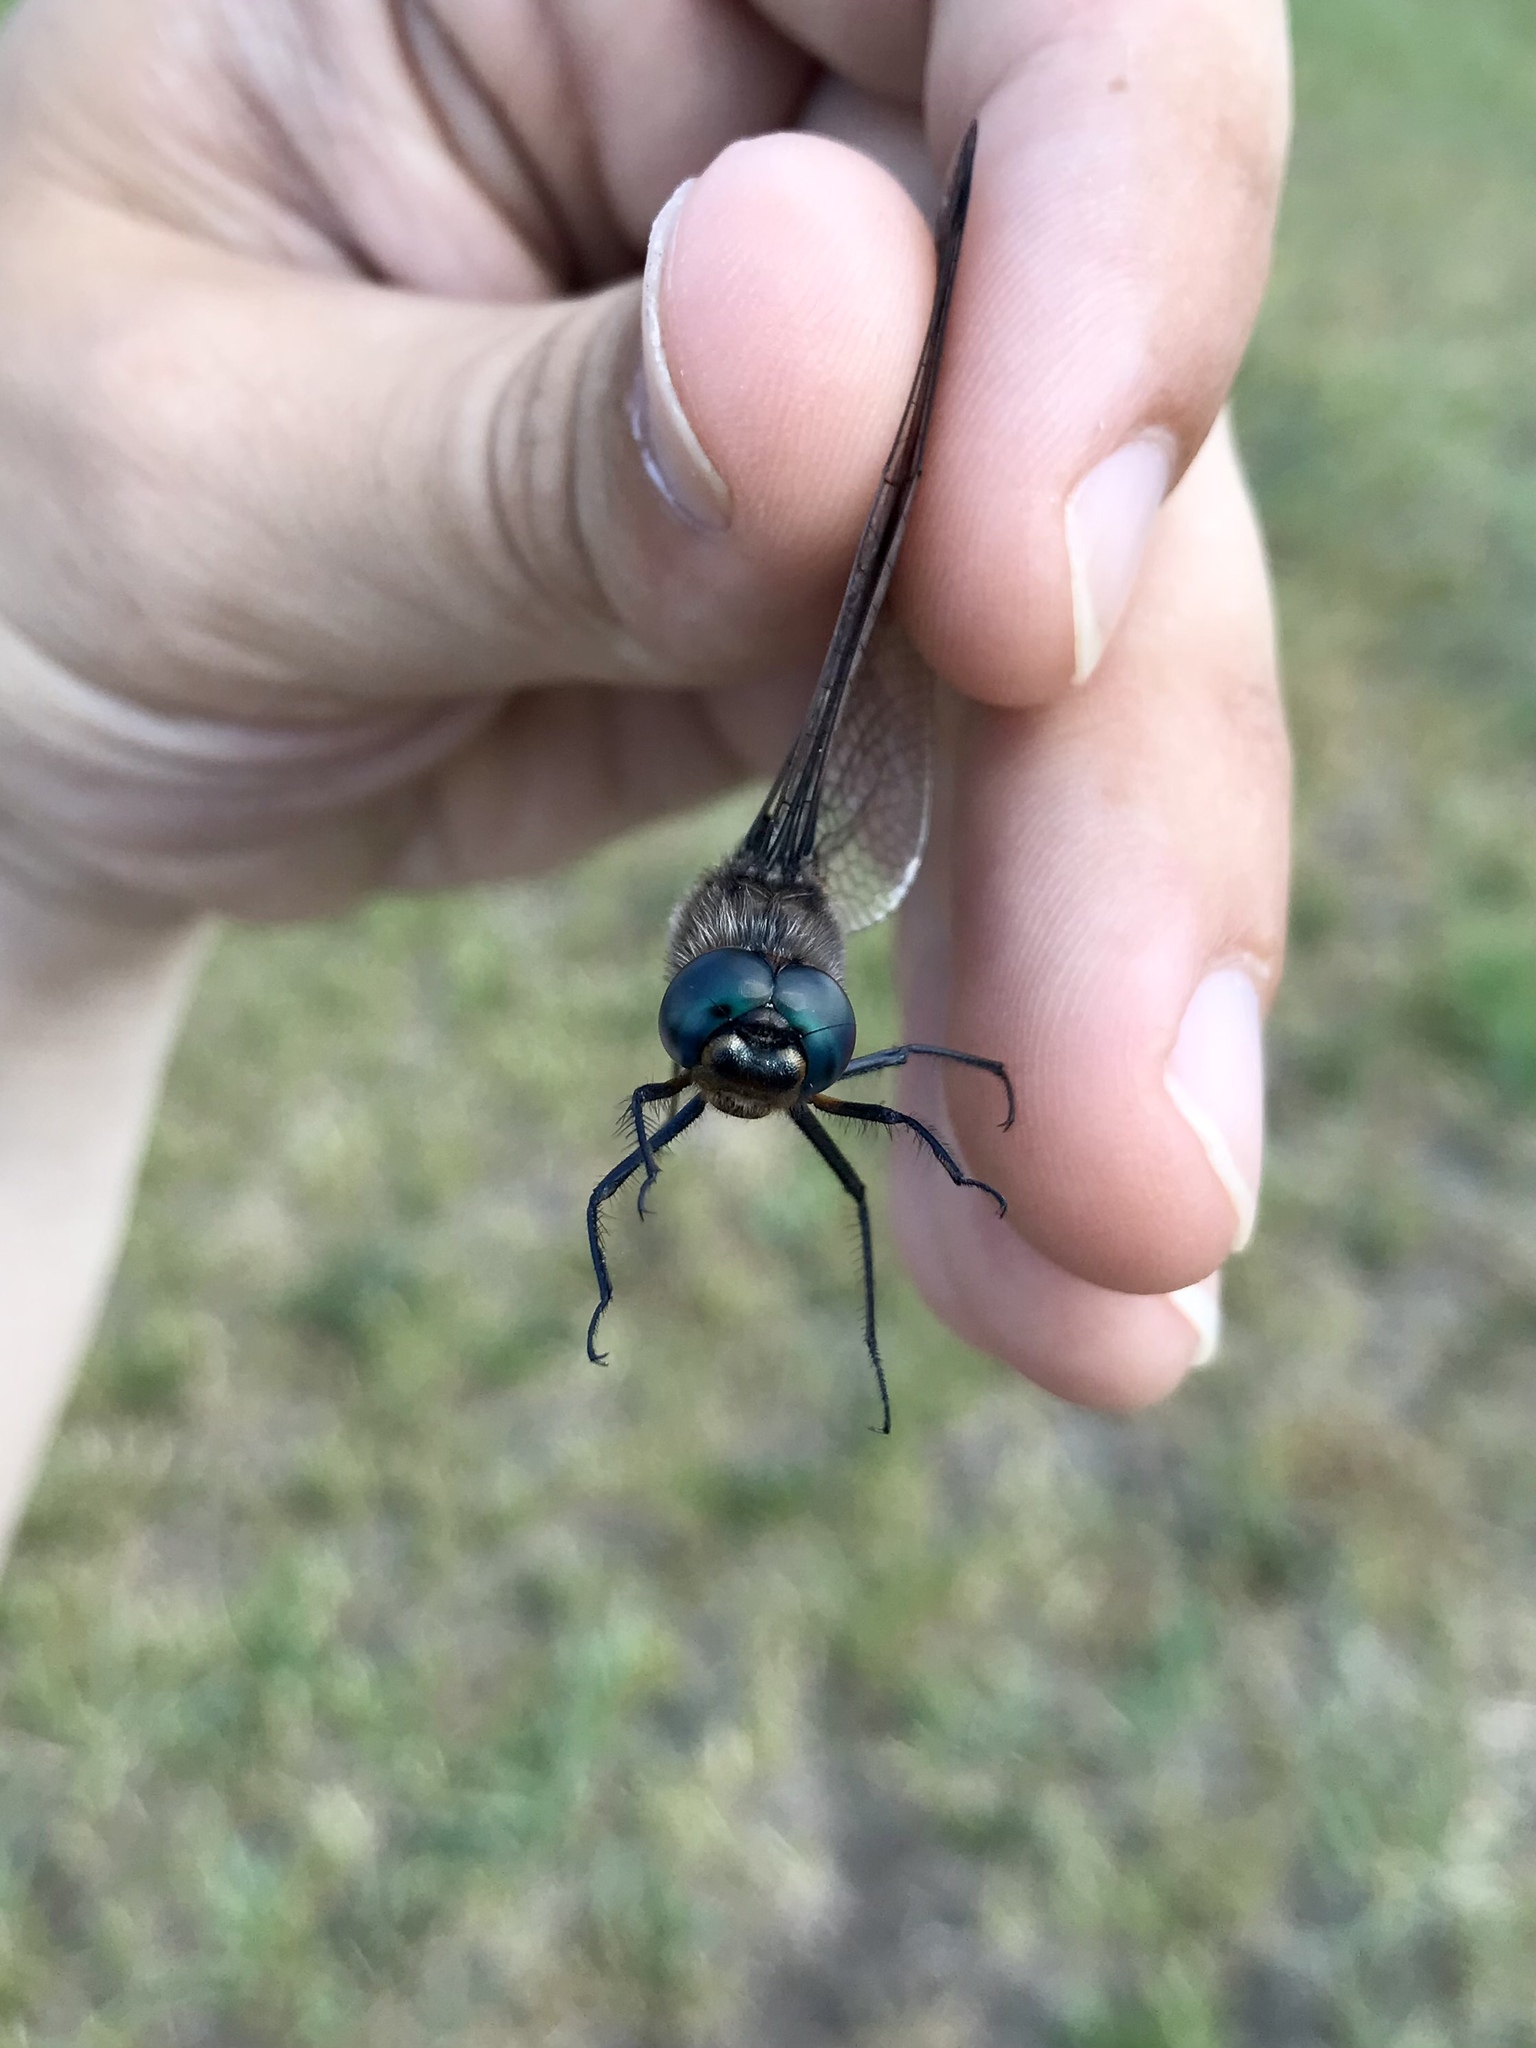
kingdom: Animalia
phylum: Arthropoda
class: Insecta
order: Odonata
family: Corduliidae
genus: Epitheca
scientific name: Epitheca spinigera
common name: Spiny baskettail
